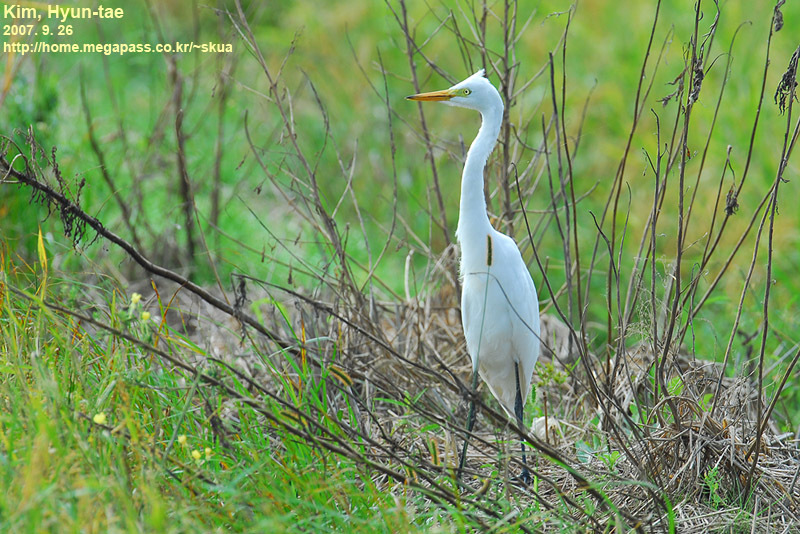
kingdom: Animalia
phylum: Chordata
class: Aves
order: Pelecaniformes
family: Ardeidae
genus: Egretta
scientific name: Egretta intermedia
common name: Intermediate egret
